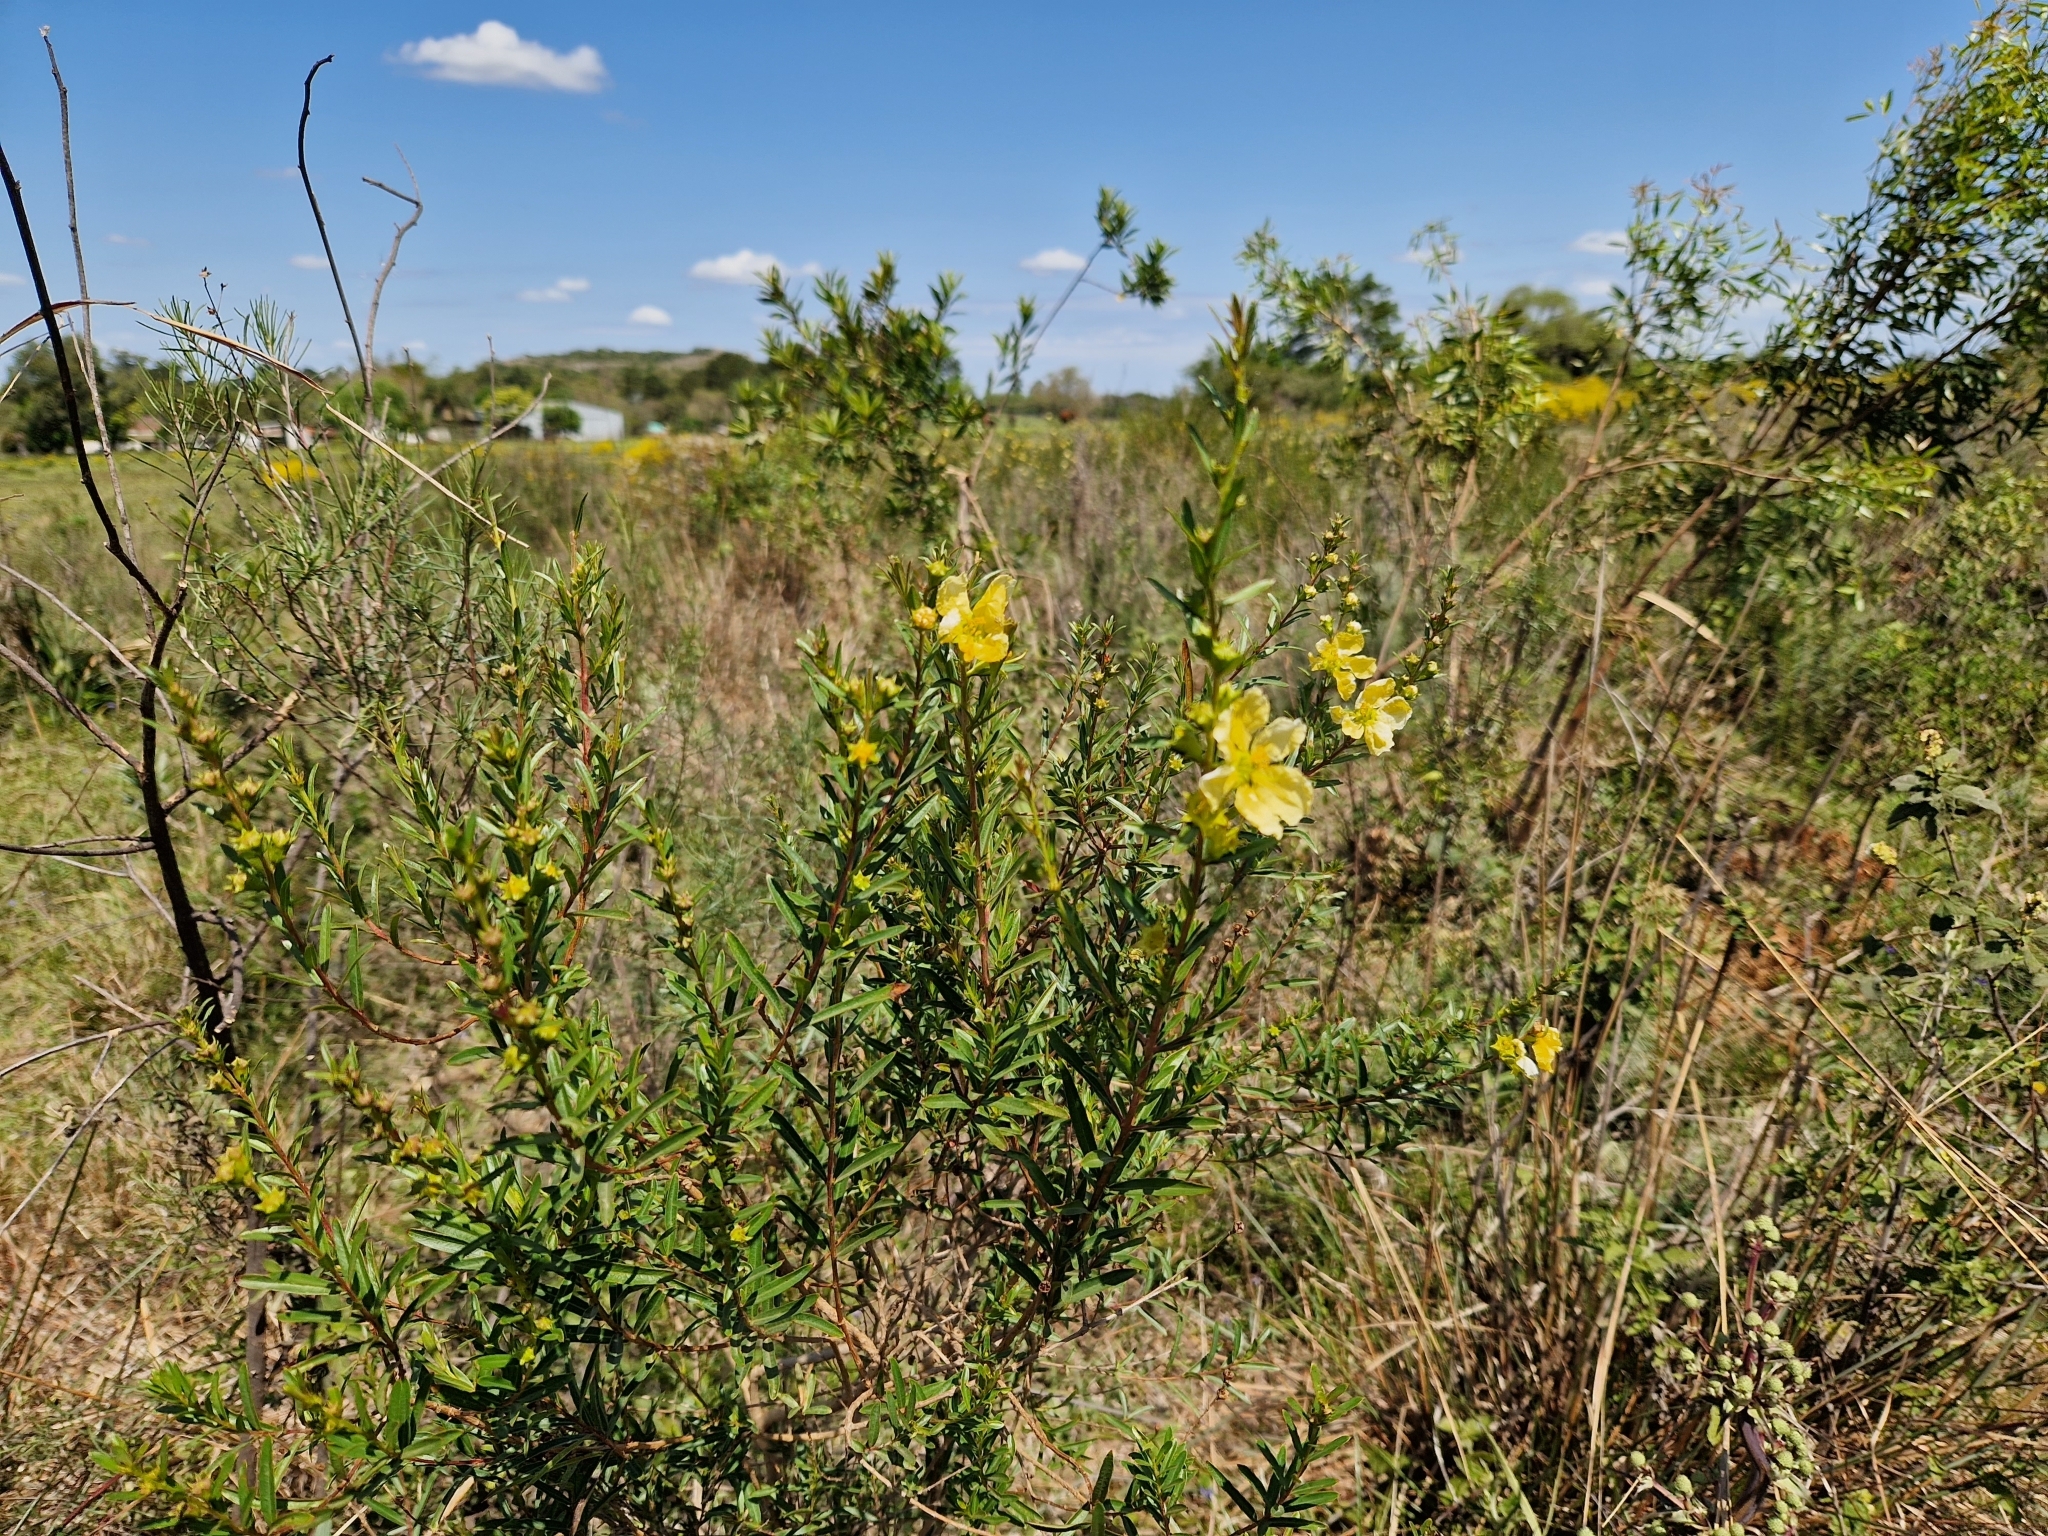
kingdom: Plantae
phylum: Tracheophyta
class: Magnoliopsida
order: Myrtales
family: Lythraceae
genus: Heimia
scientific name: Heimia salicifolia
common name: Willow-leaf heimia
